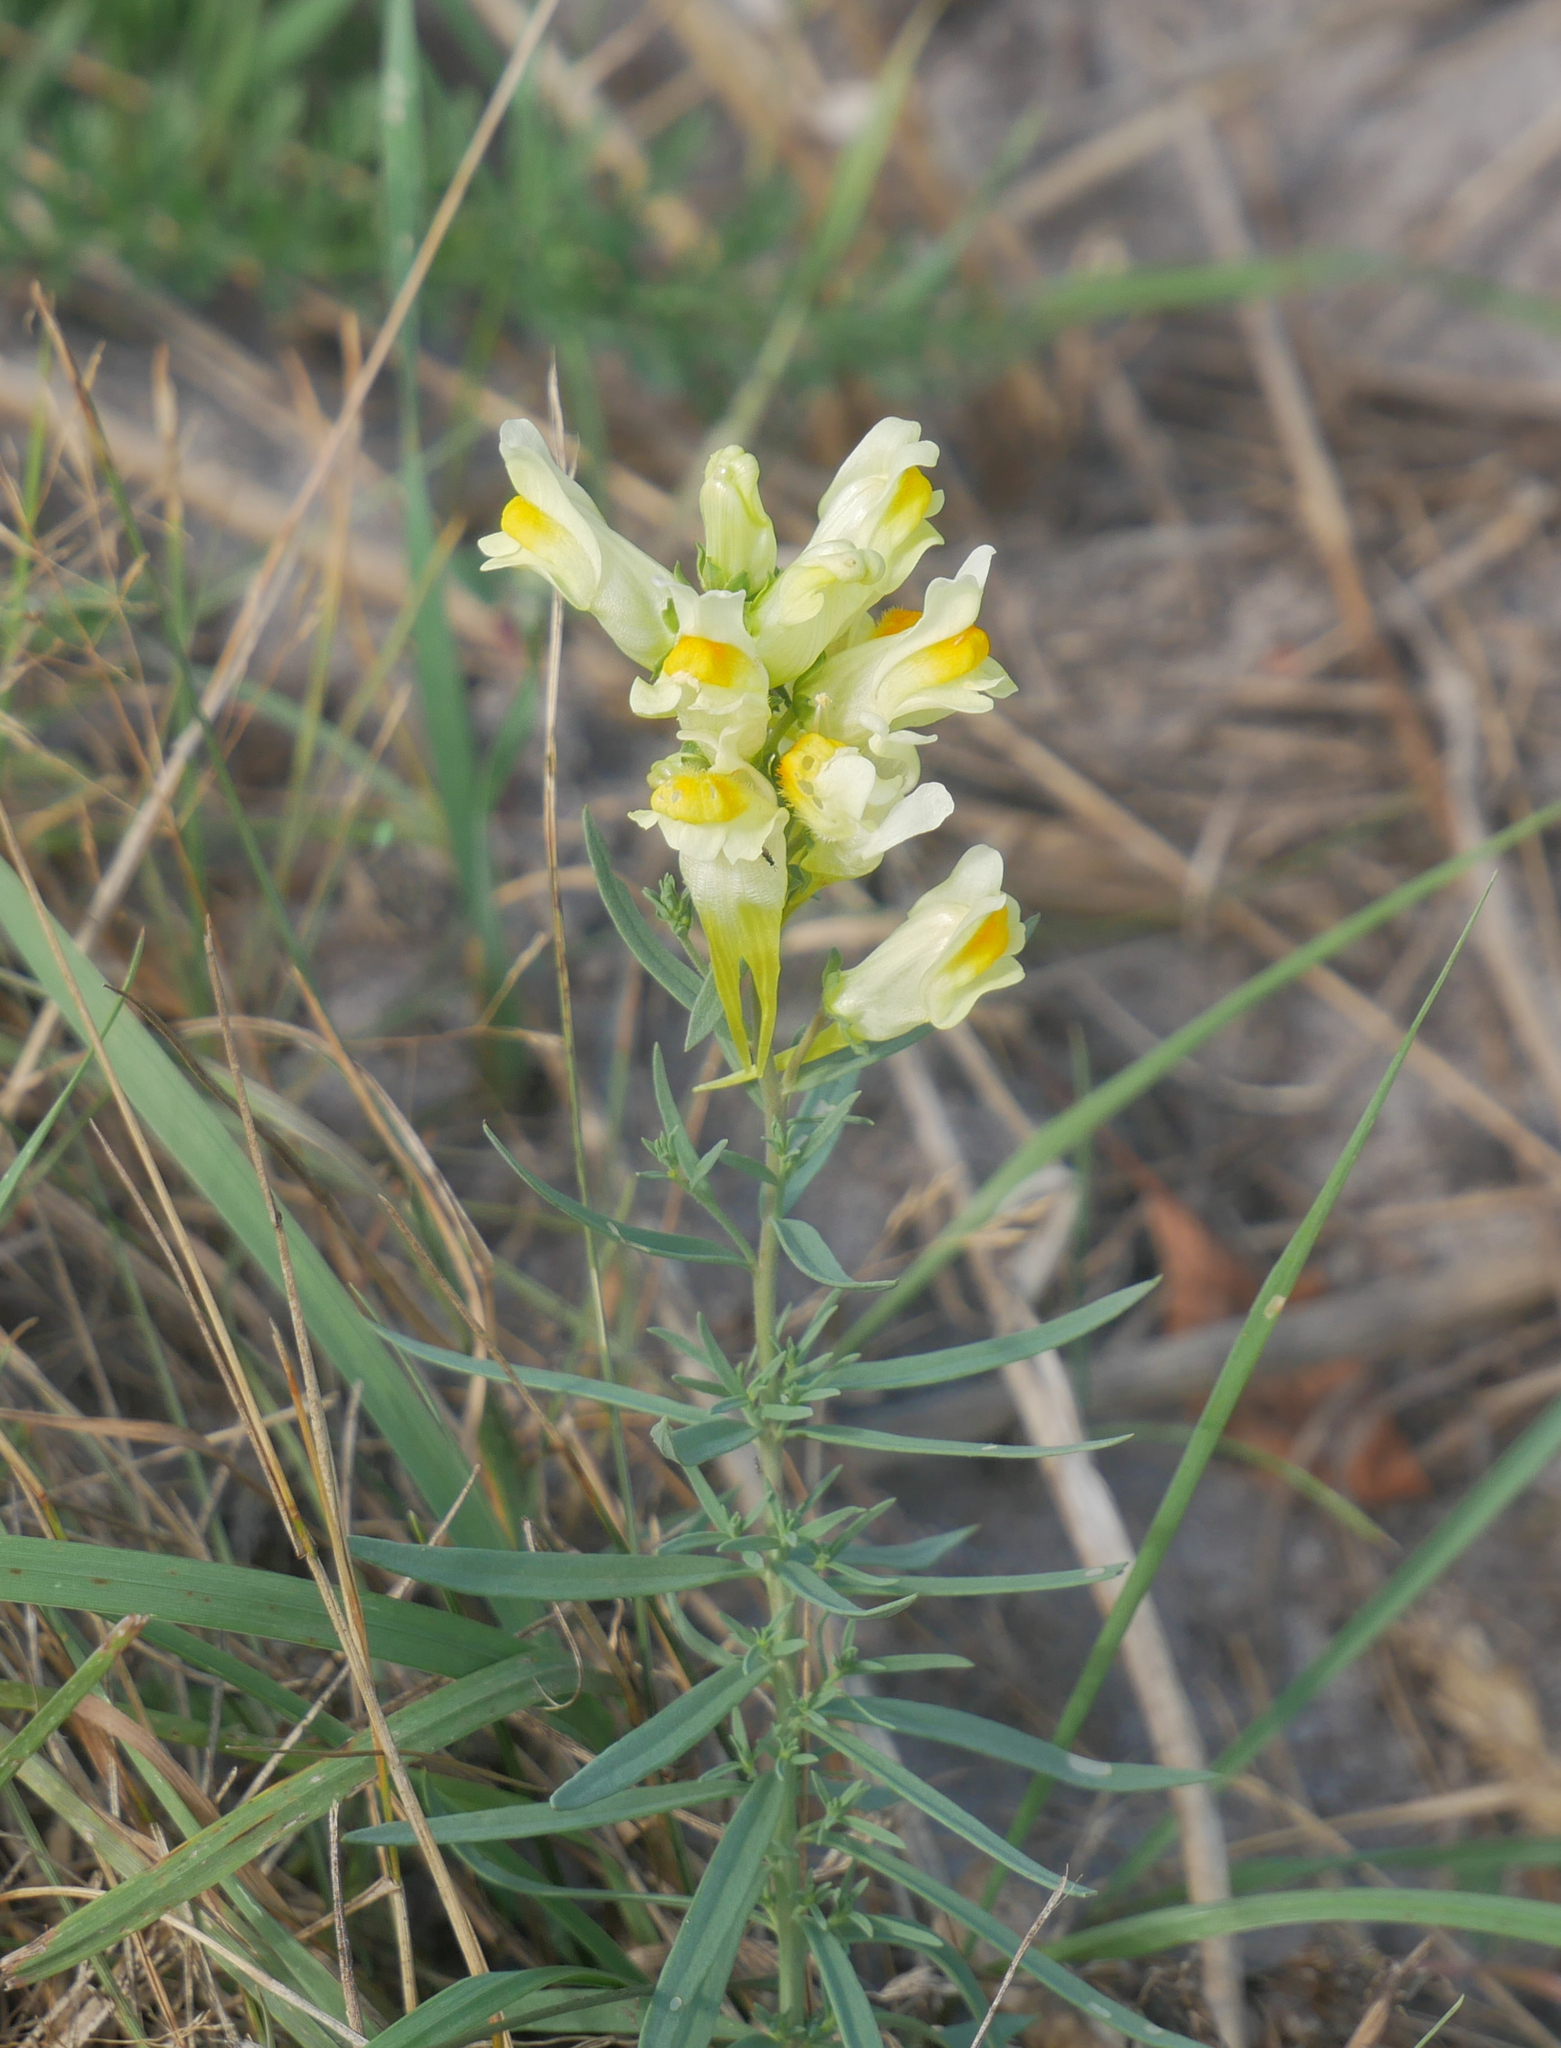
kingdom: Plantae
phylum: Tracheophyta
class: Magnoliopsida
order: Lamiales
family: Plantaginaceae
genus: Linaria
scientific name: Linaria vulgaris
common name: Butter and eggs
